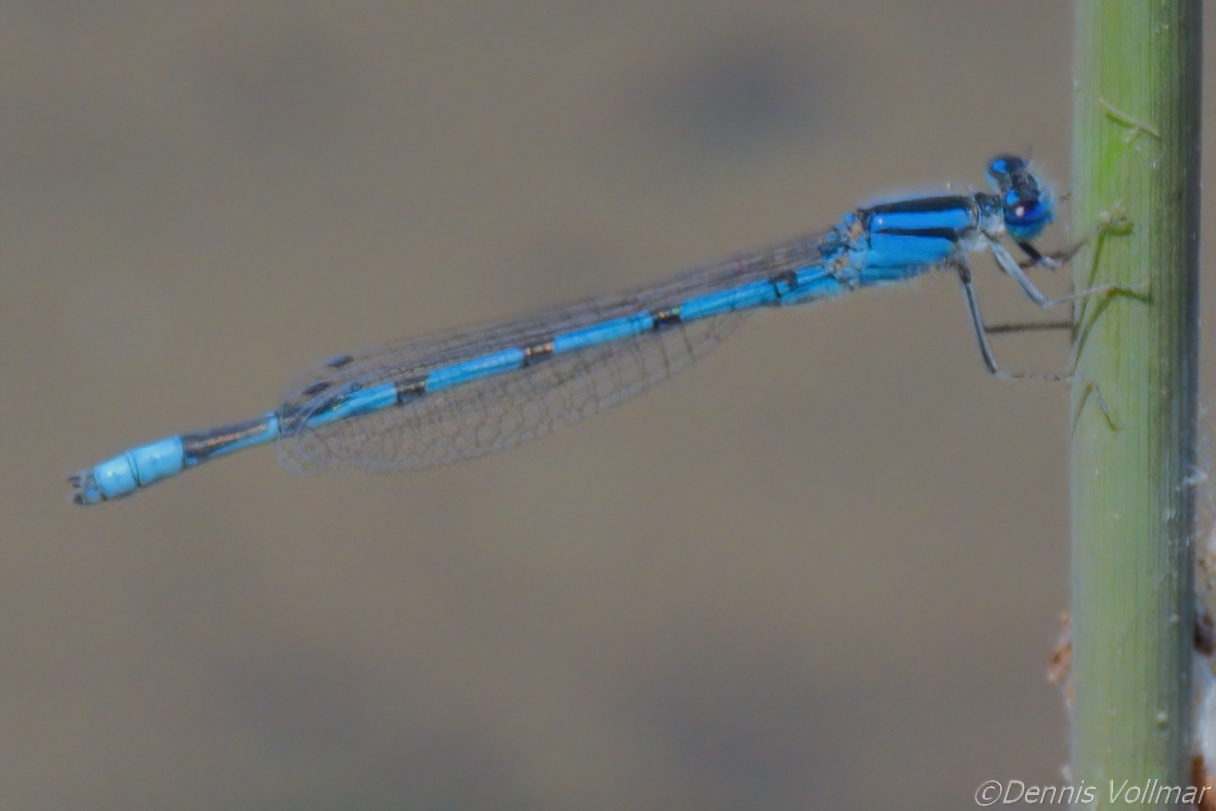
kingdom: Animalia
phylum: Arthropoda
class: Insecta
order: Odonata
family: Coenagrionidae
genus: Enallagma
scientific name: Enallagma civile
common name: Damselfly
